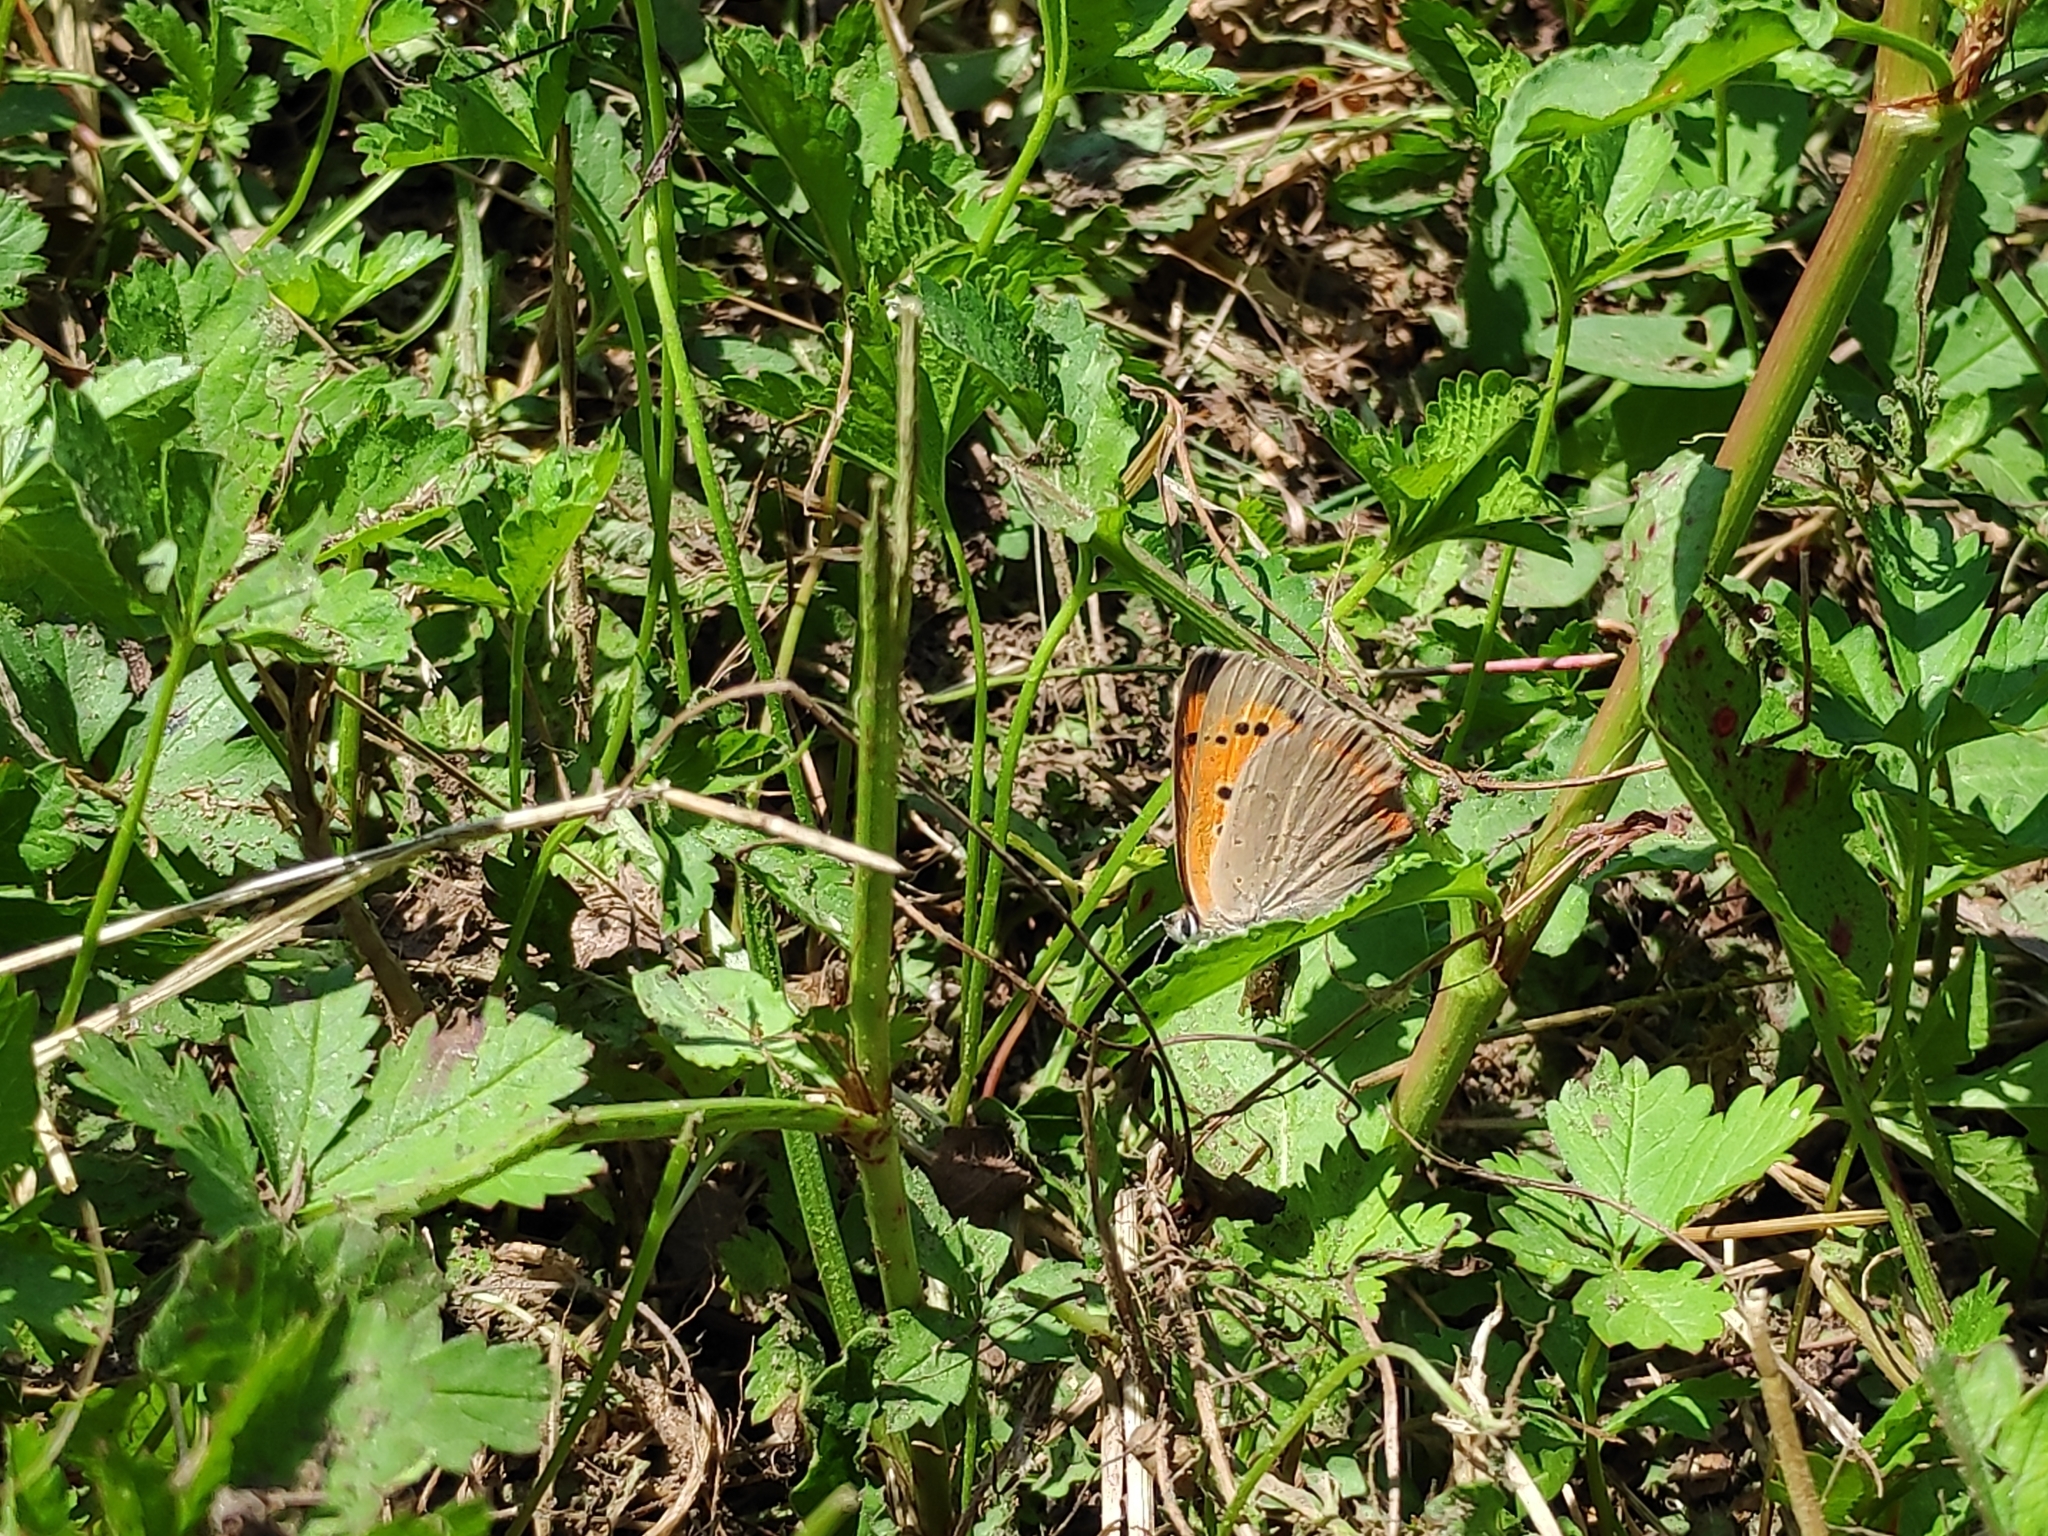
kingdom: Animalia
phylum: Arthropoda
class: Insecta
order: Lepidoptera
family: Lycaenidae
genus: Lycaena
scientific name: Lycaena phlaeas
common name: Small copper
